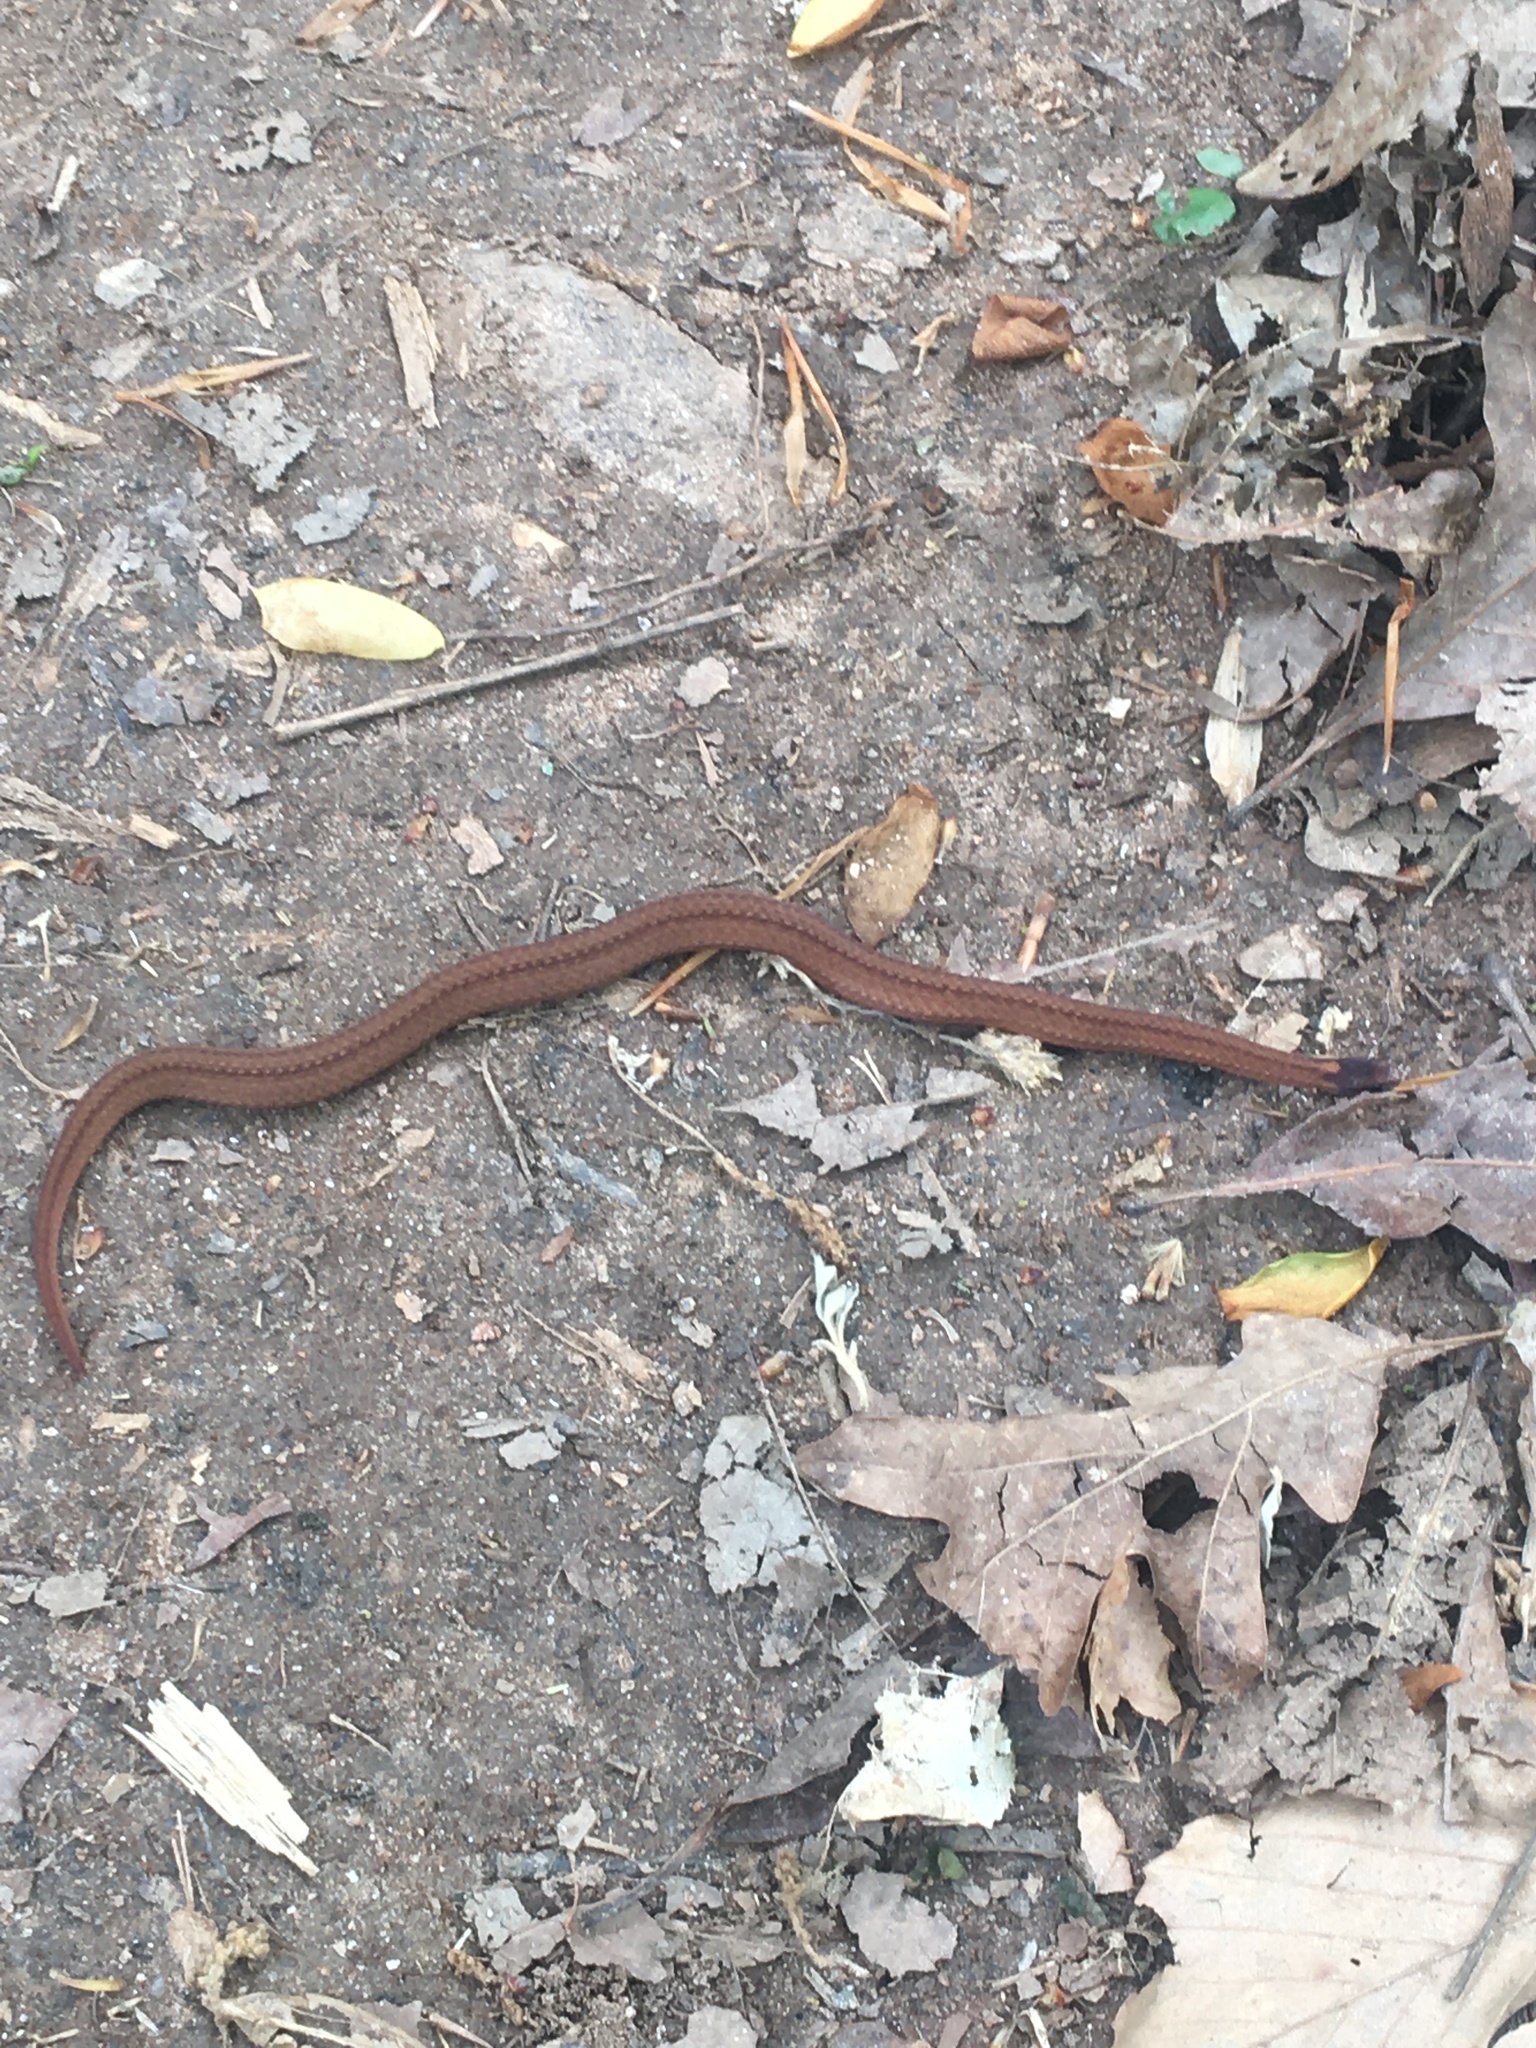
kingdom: Animalia
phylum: Chordata
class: Squamata
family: Colubridae
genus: Storeria
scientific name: Storeria occipitomaculata
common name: Redbelly snake
